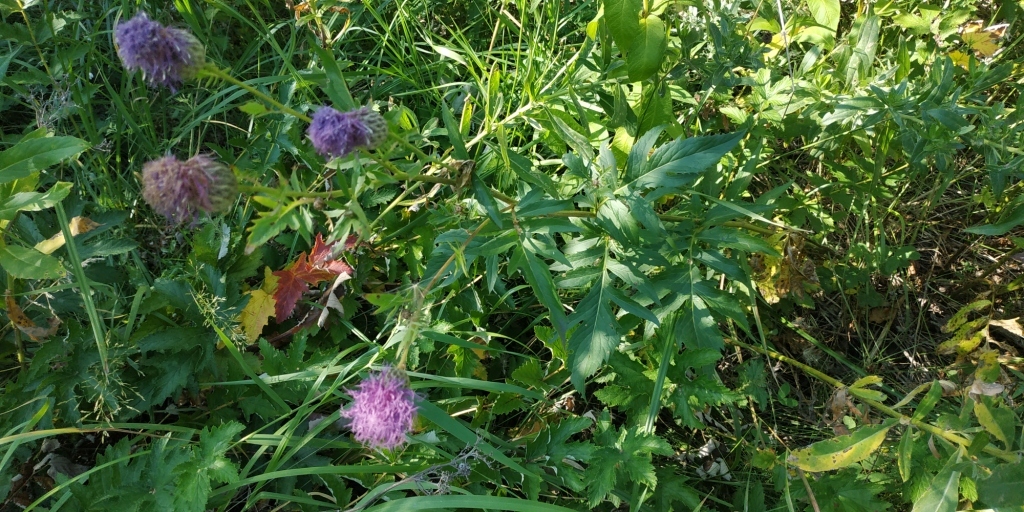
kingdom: Plantae
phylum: Tracheophyta
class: Magnoliopsida
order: Asterales
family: Asteraceae
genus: Serratula
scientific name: Serratula coronata
